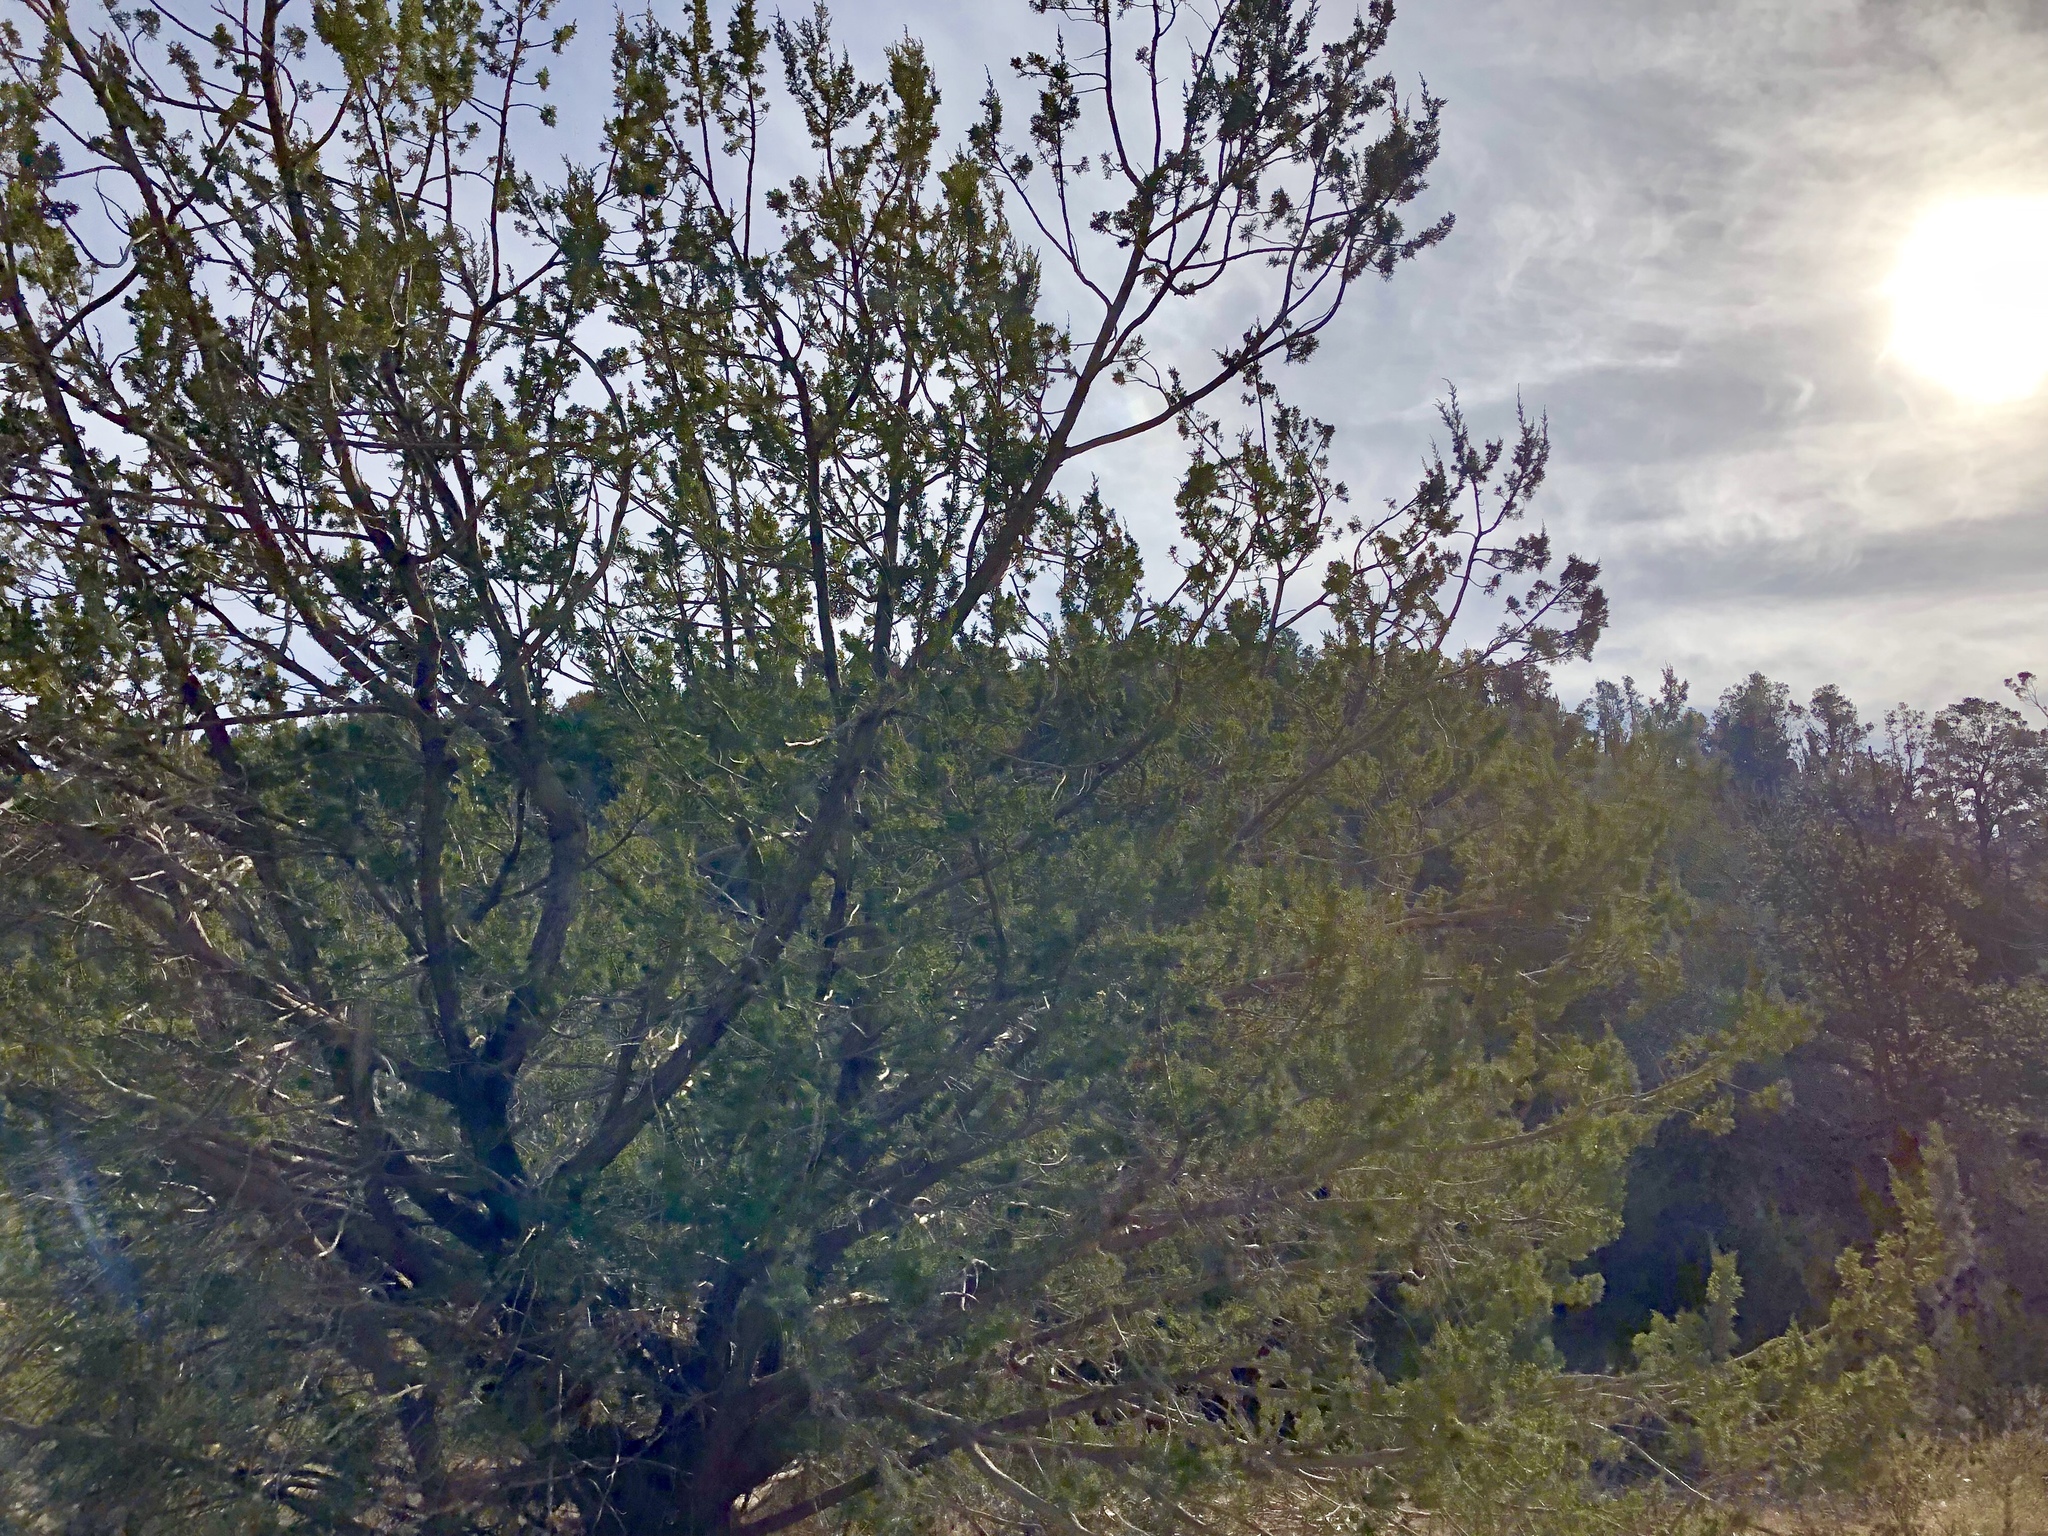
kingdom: Plantae
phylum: Tracheophyta
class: Pinopsida
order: Pinales
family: Cupressaceae
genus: Juniperus
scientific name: Juniperus monosperma
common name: One-seed juniper
